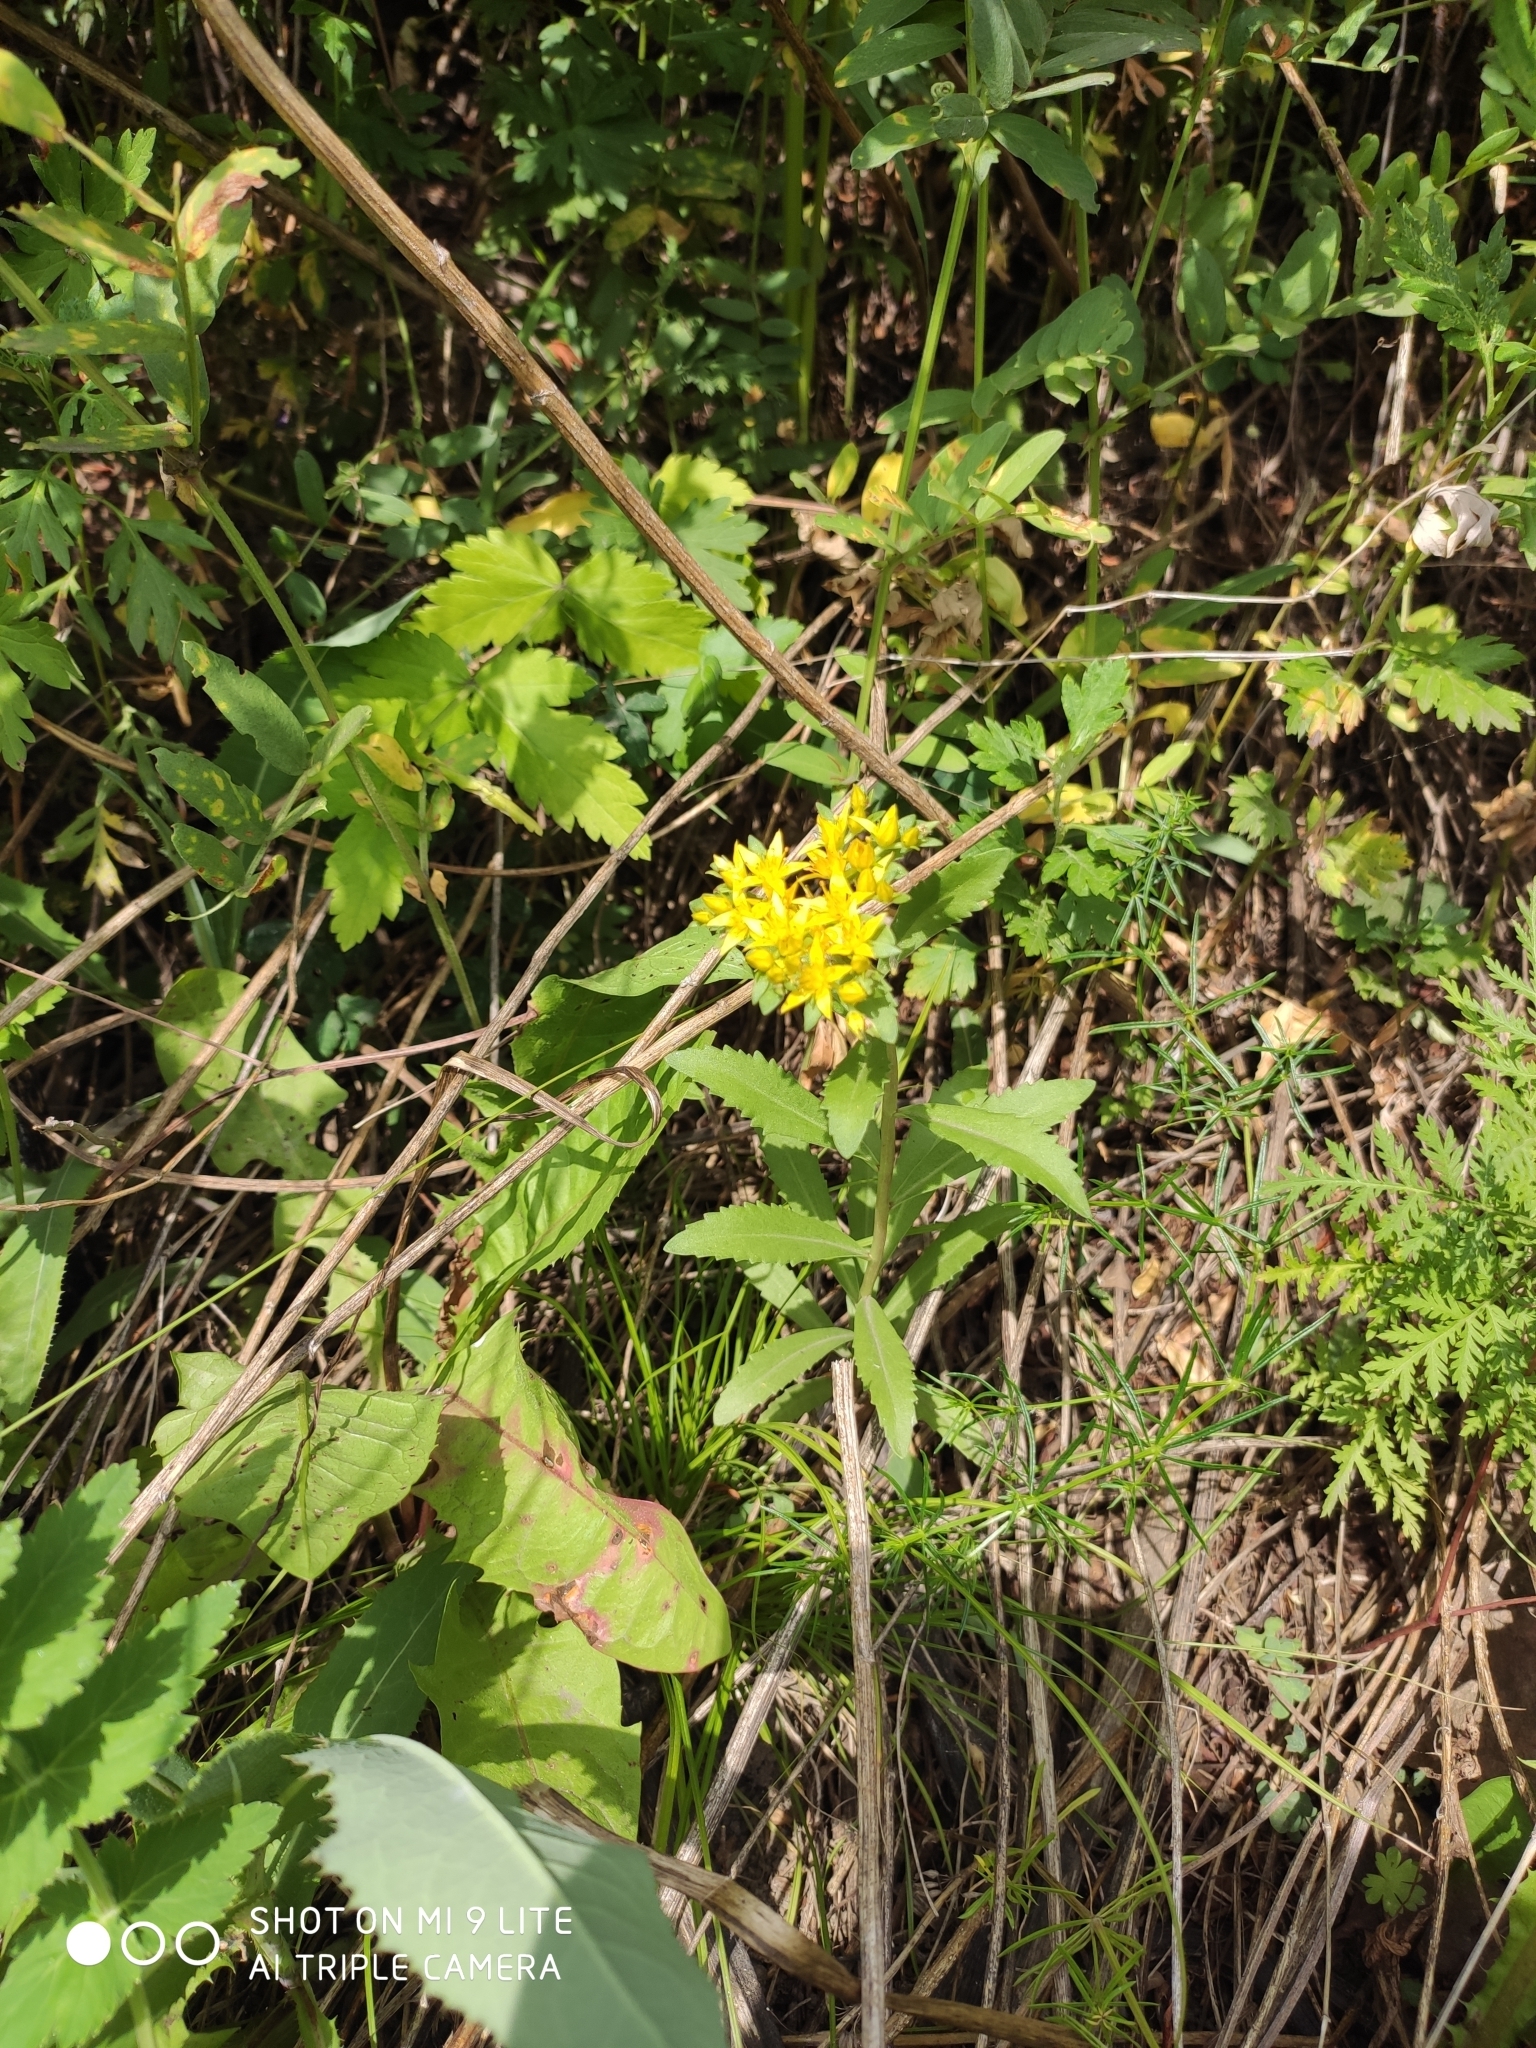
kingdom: Plantae
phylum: Tracheophyta
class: Magnoliopsida
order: Saxifragales
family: Crassulaceae
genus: Phedimus
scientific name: Phedimus aizoon
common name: Orpin aizoon
